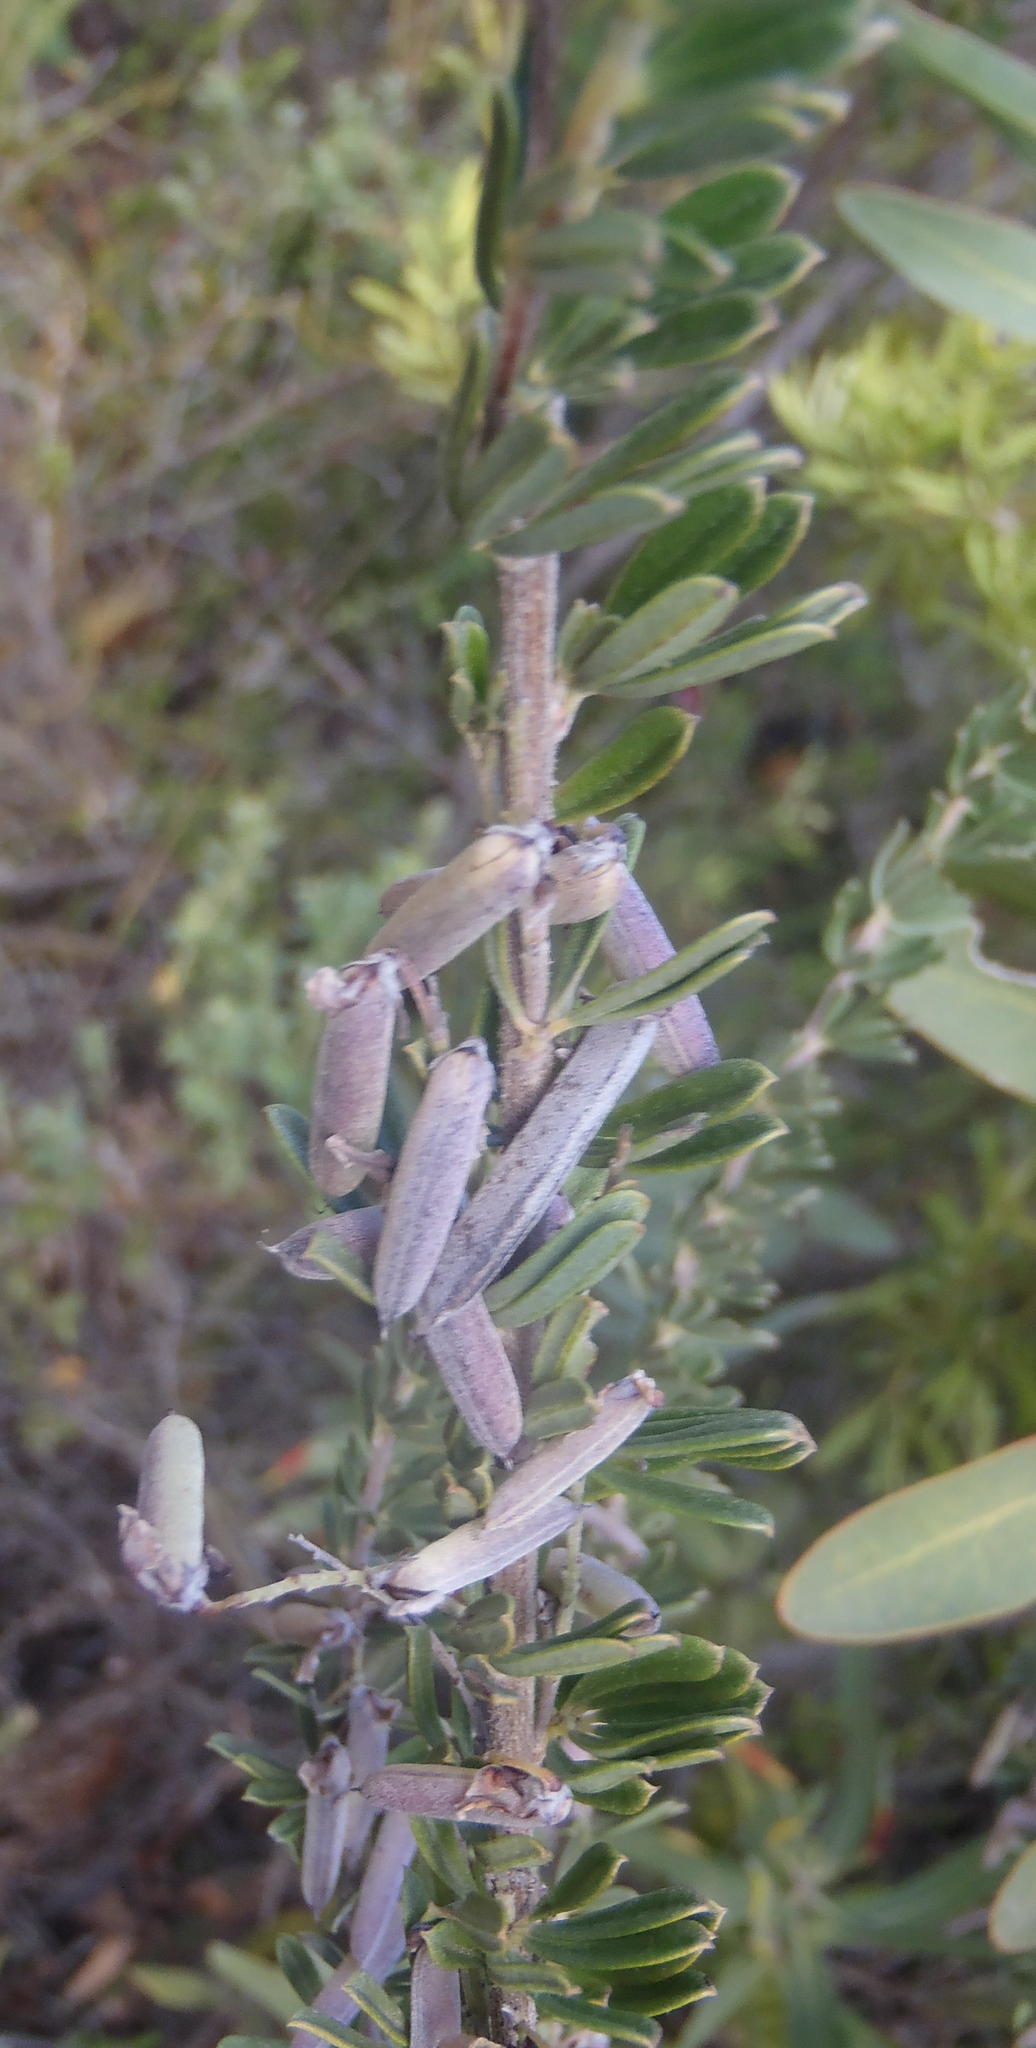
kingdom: Plantae
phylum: Tracheophyta
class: Magnoliopsida
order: Fabales
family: Fabaceae
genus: Indigofera
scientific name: Indigofera flabellata
